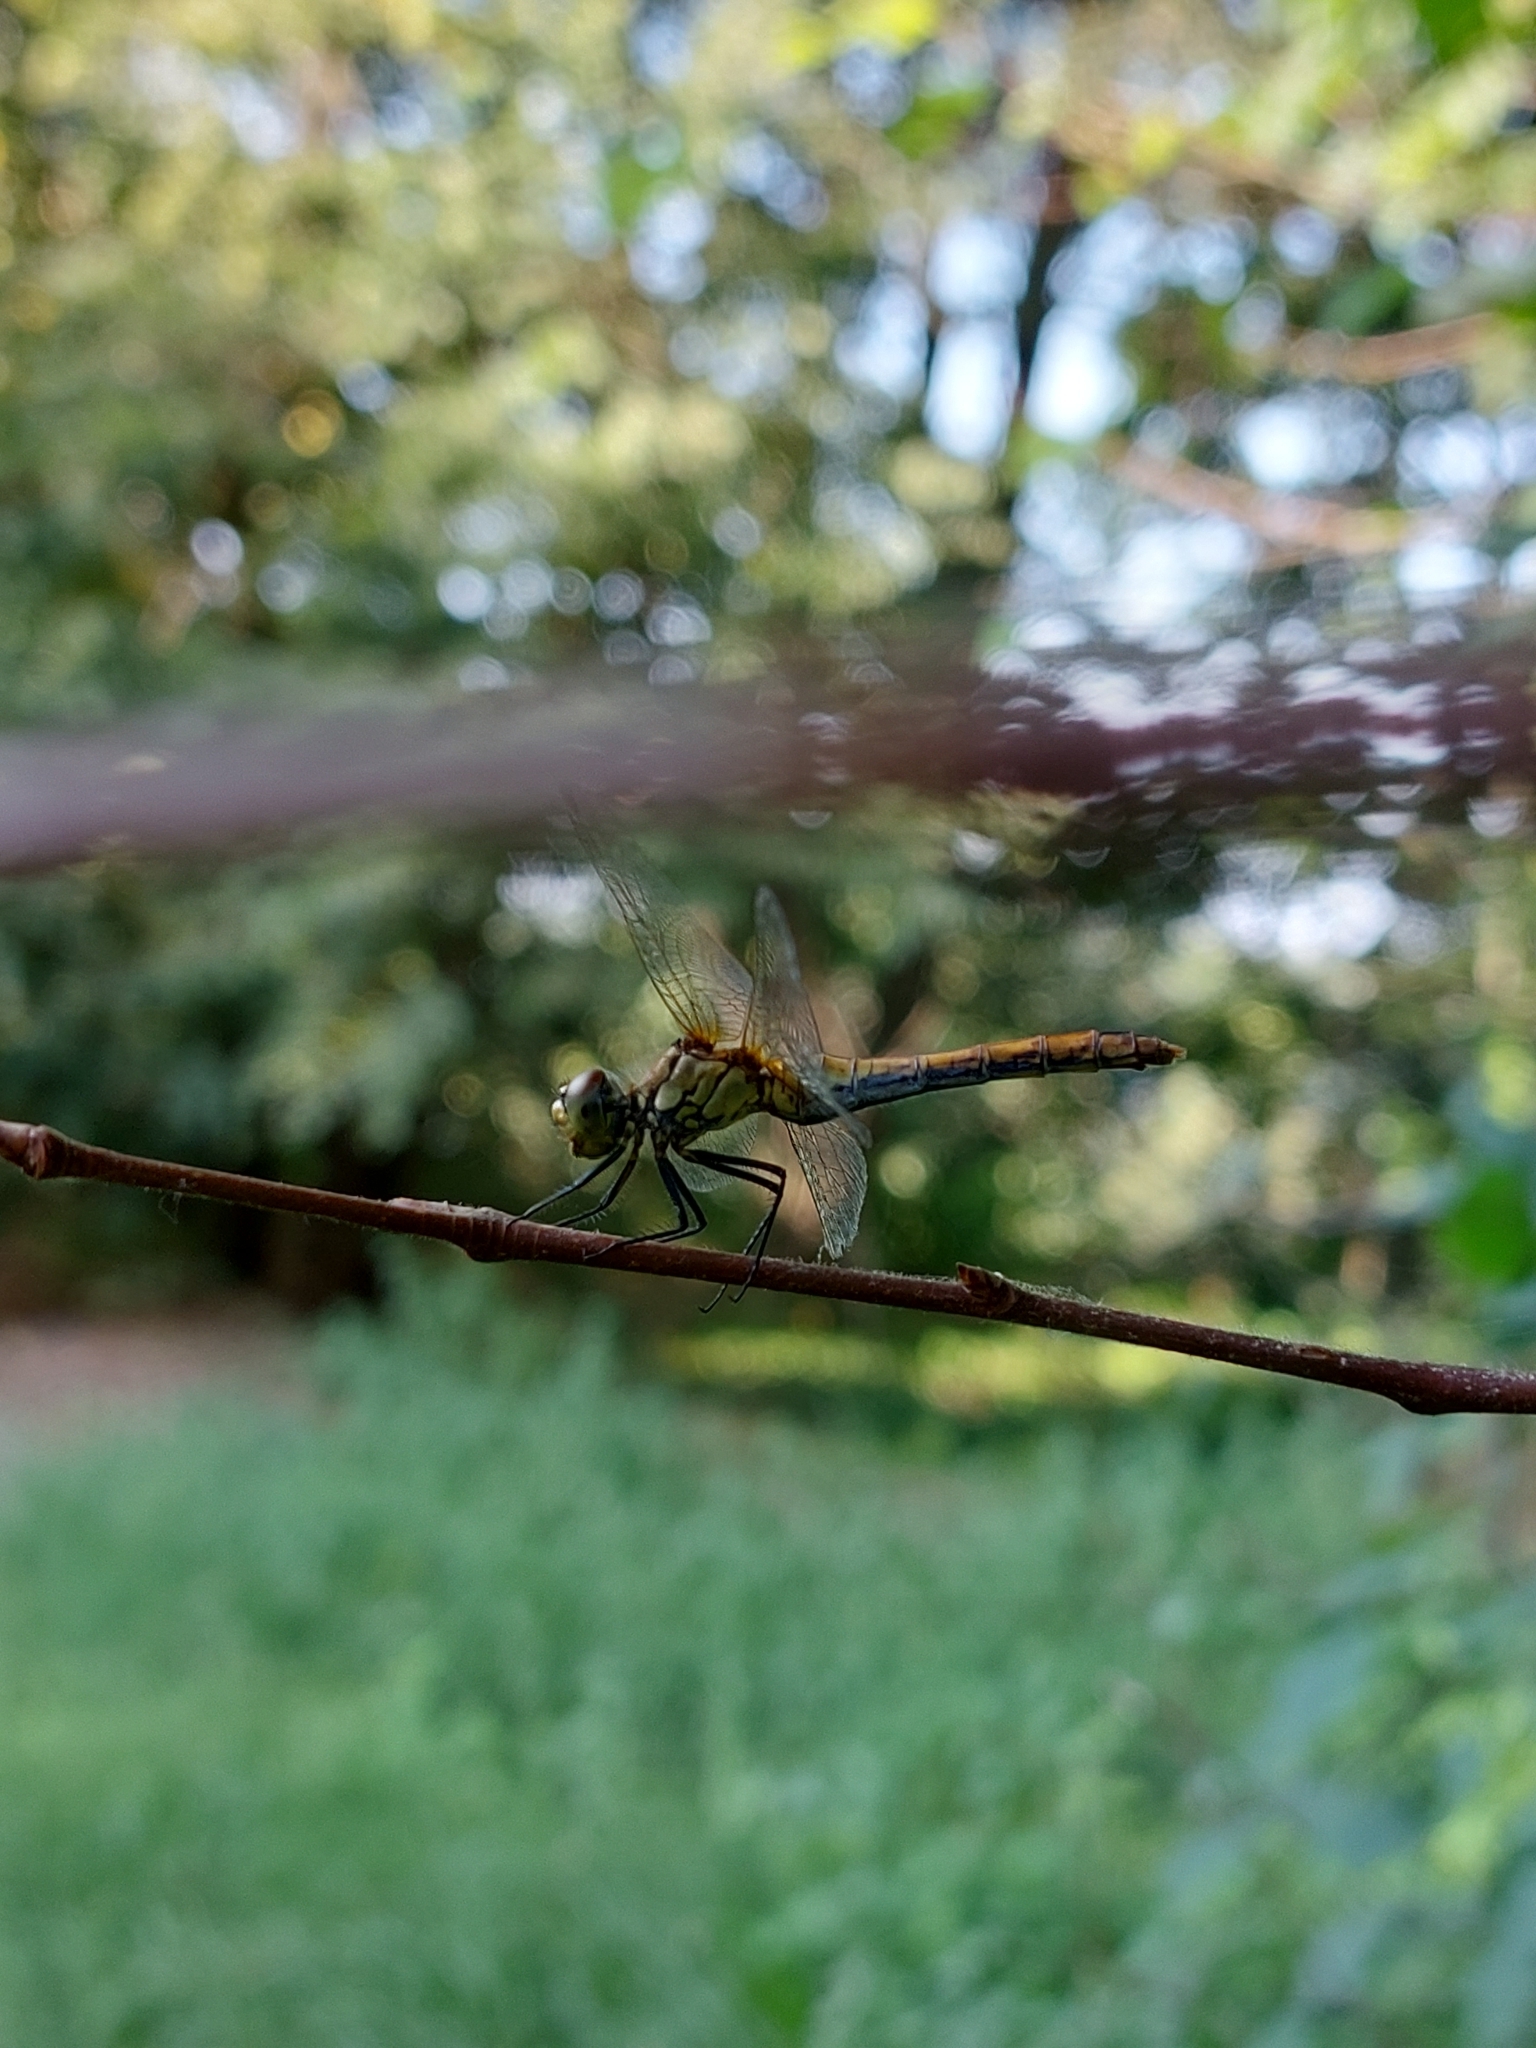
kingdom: Animalia
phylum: Arthropoda
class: Insecta
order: Odonata
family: Libellulidae
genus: Sympetrum
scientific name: Sympetrum sanguineum
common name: Ruddy darter
